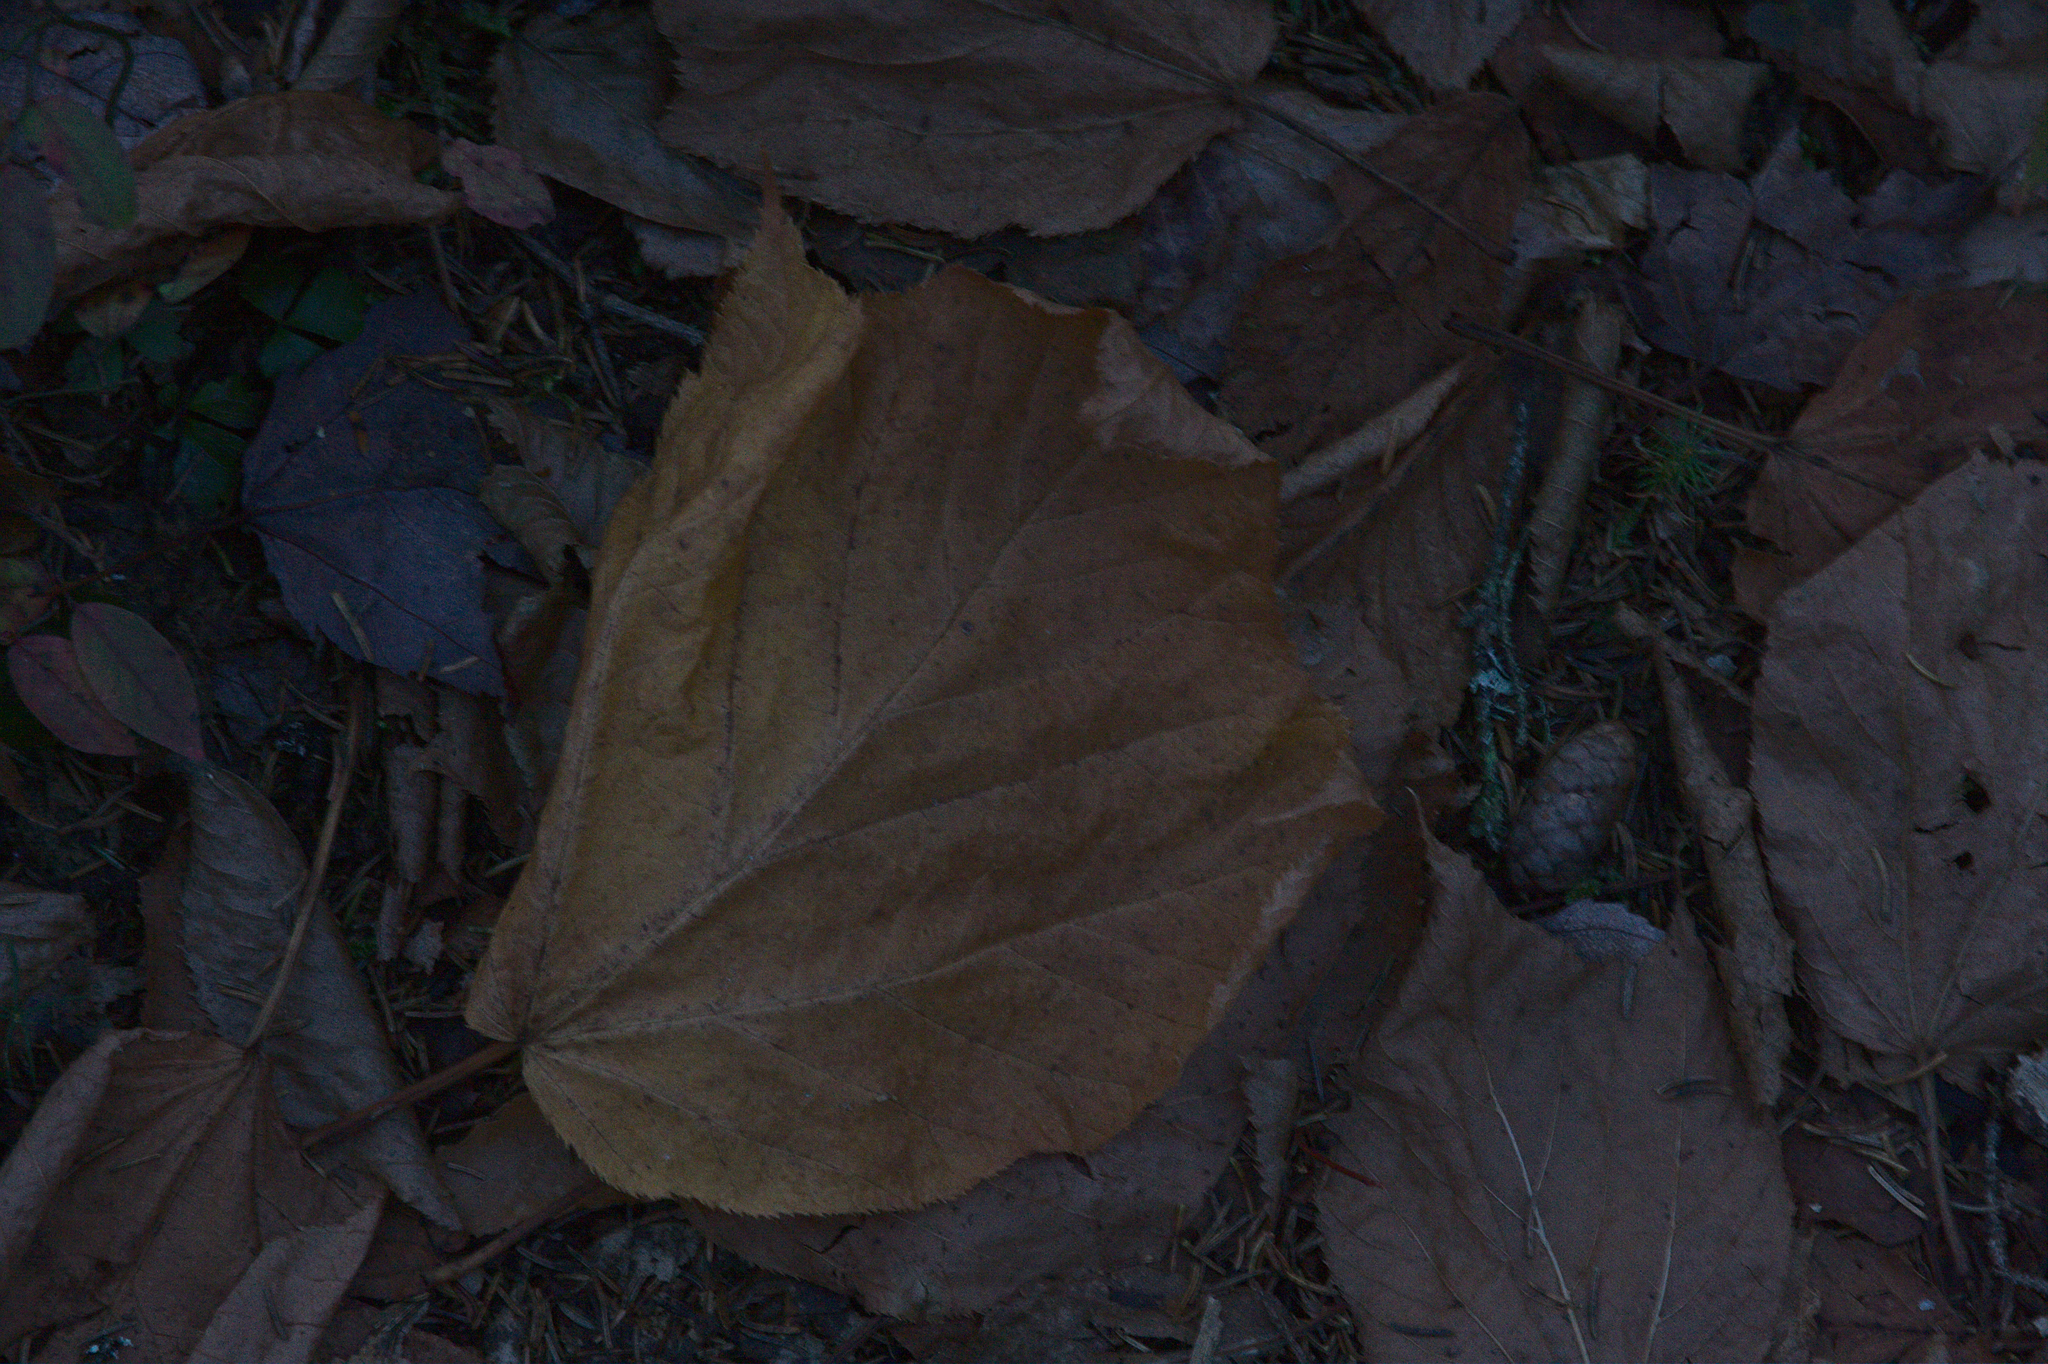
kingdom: Plantae
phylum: Tracheophyta
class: Magnoliopsida
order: Sapindales
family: Sapindaceae
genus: Acer
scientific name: Acer pensylvanicum
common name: Moosewood
